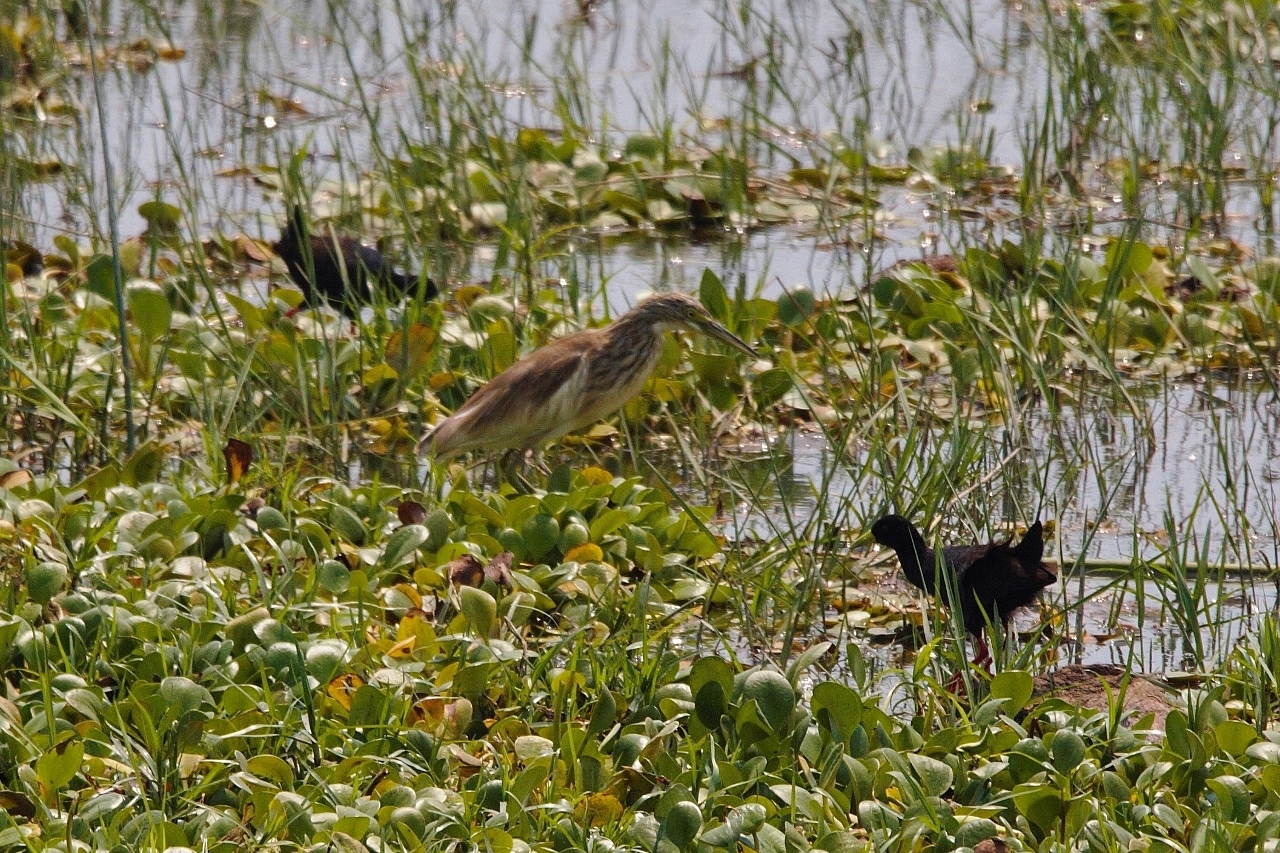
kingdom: Animalia
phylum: Chordata
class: Aves
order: Pelecaniformes
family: Ardeidae
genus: Ardeola
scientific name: Ardeola ralloides
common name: Squacco heron
